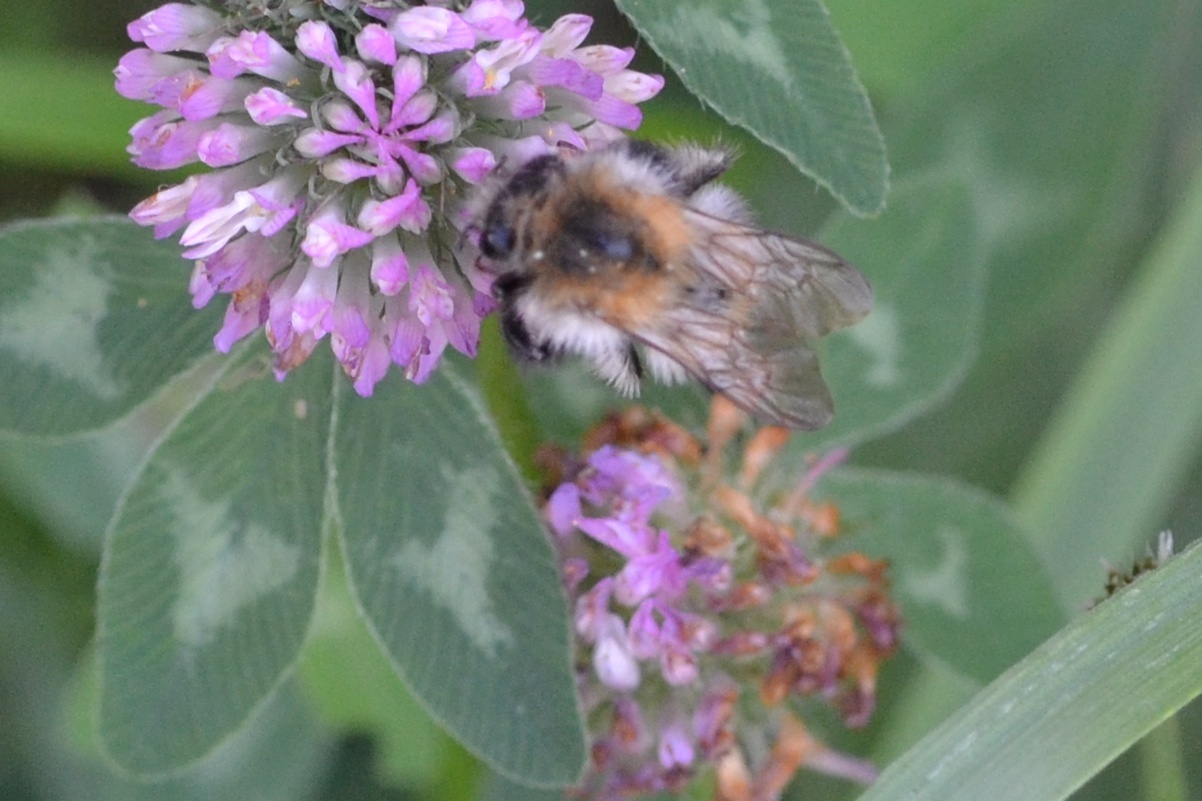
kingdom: Animalia
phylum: Arthropoda
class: Insecta
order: Hymenoptera
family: Apidae
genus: Bombus
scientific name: Bombus pascuorum
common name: Common carder bee
